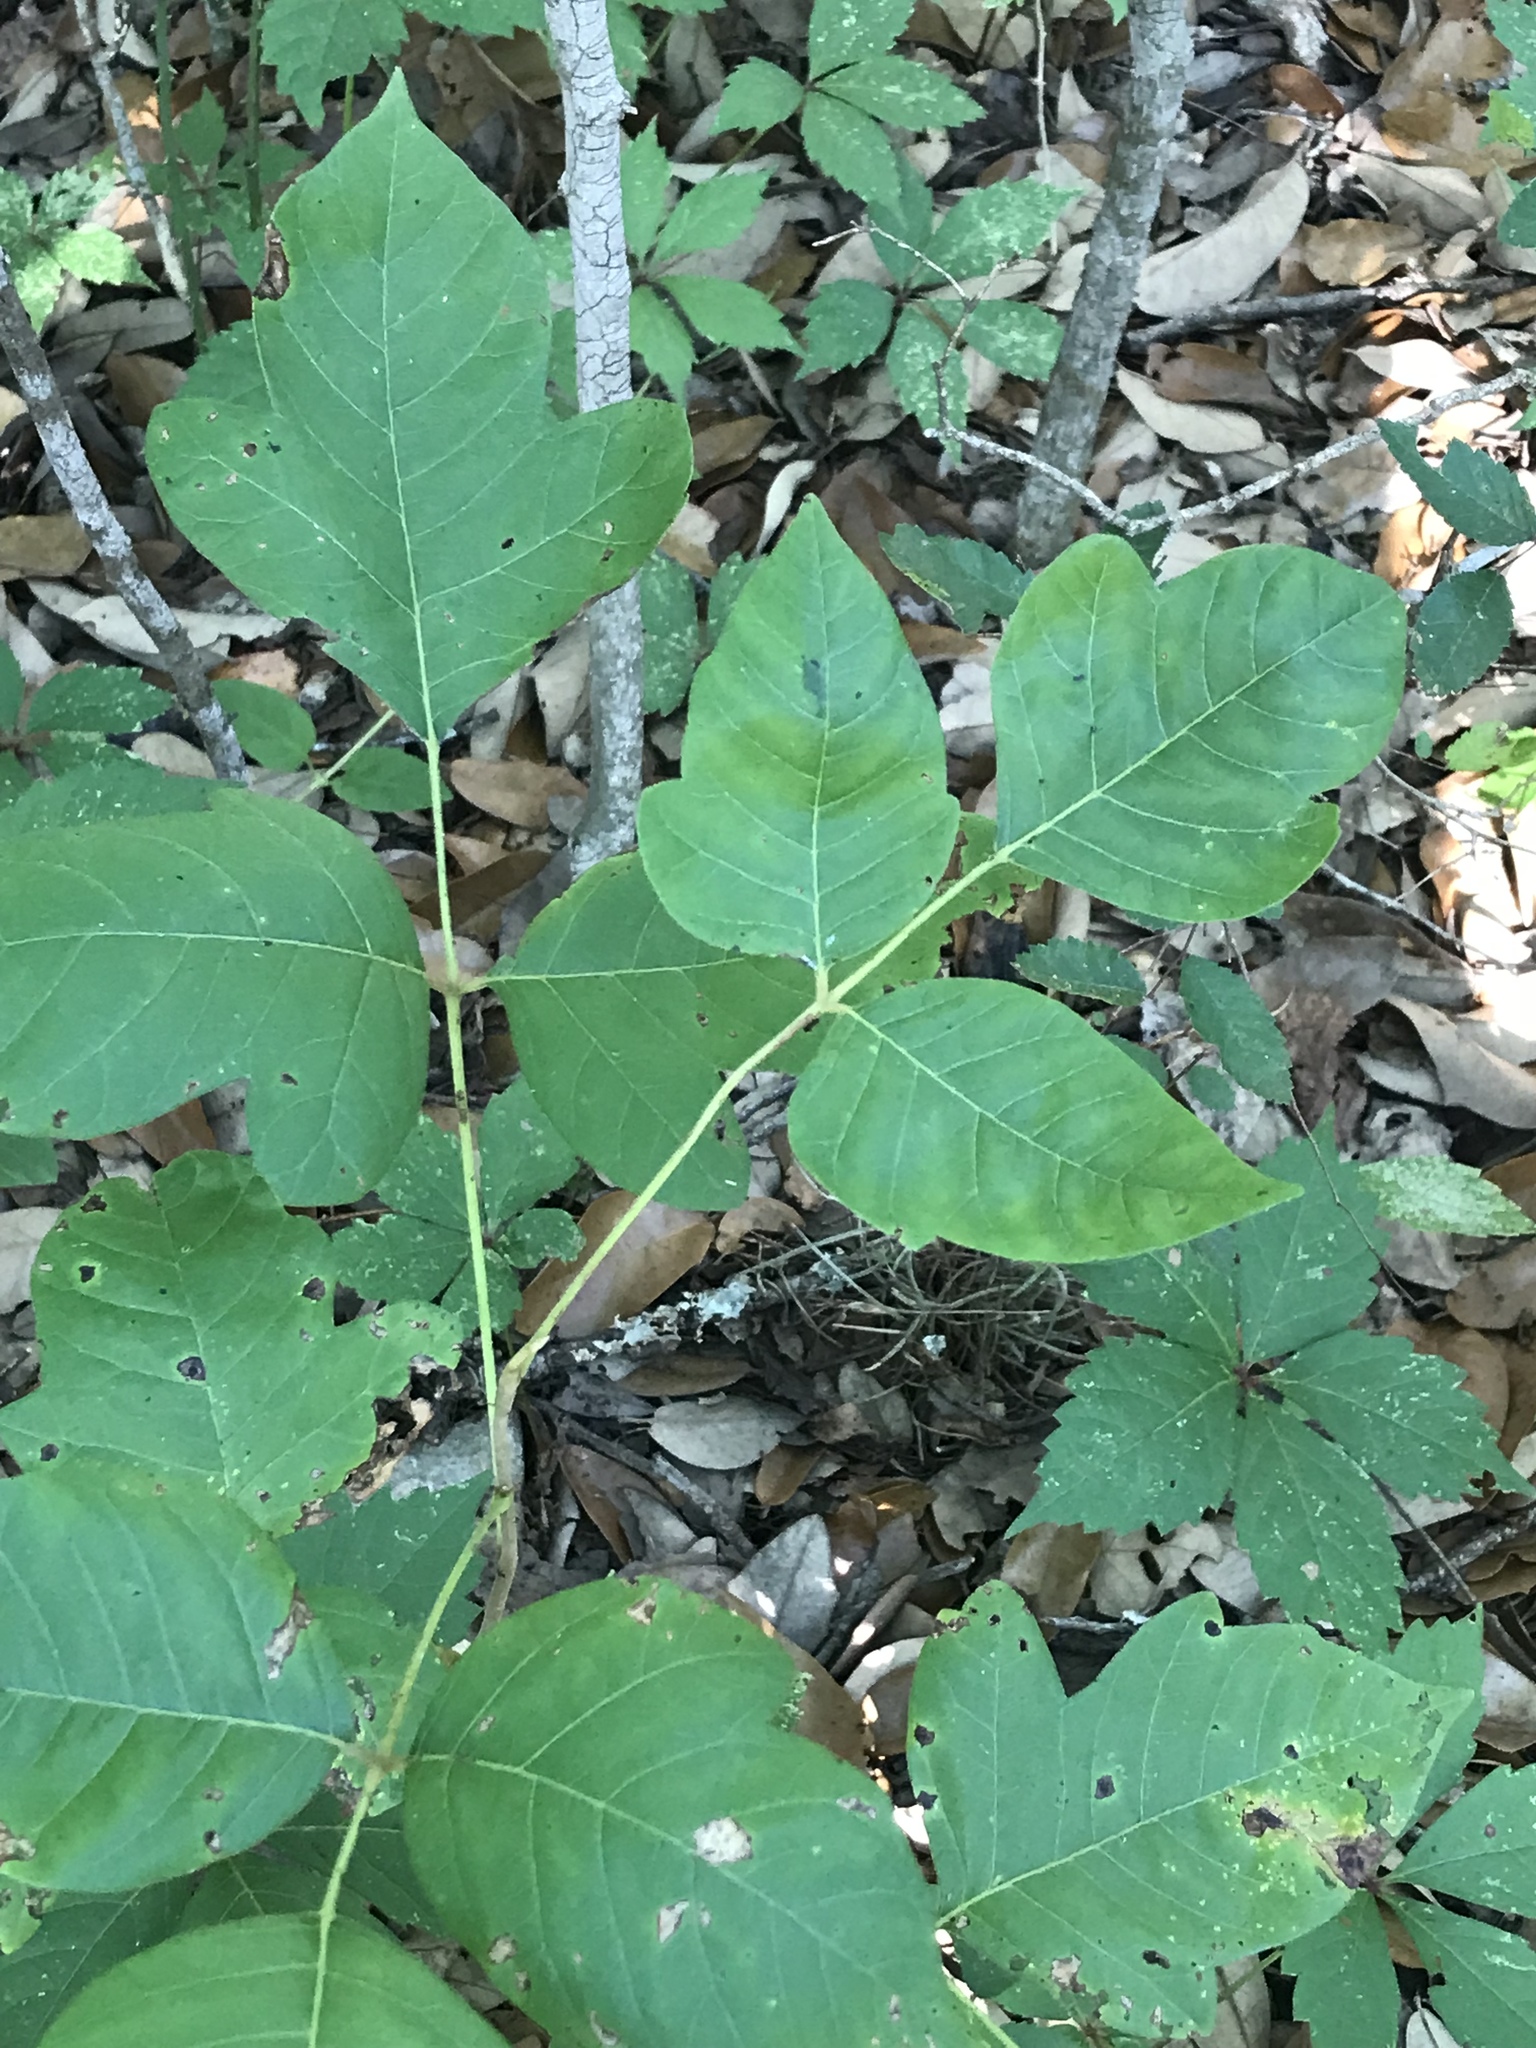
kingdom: Plantae
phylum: Tracheophyta
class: Magnoliopsida
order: Sapindales
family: Anacardiaceae
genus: Toxicodendron
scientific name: Toxicodendron radicans
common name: Poison ivy
